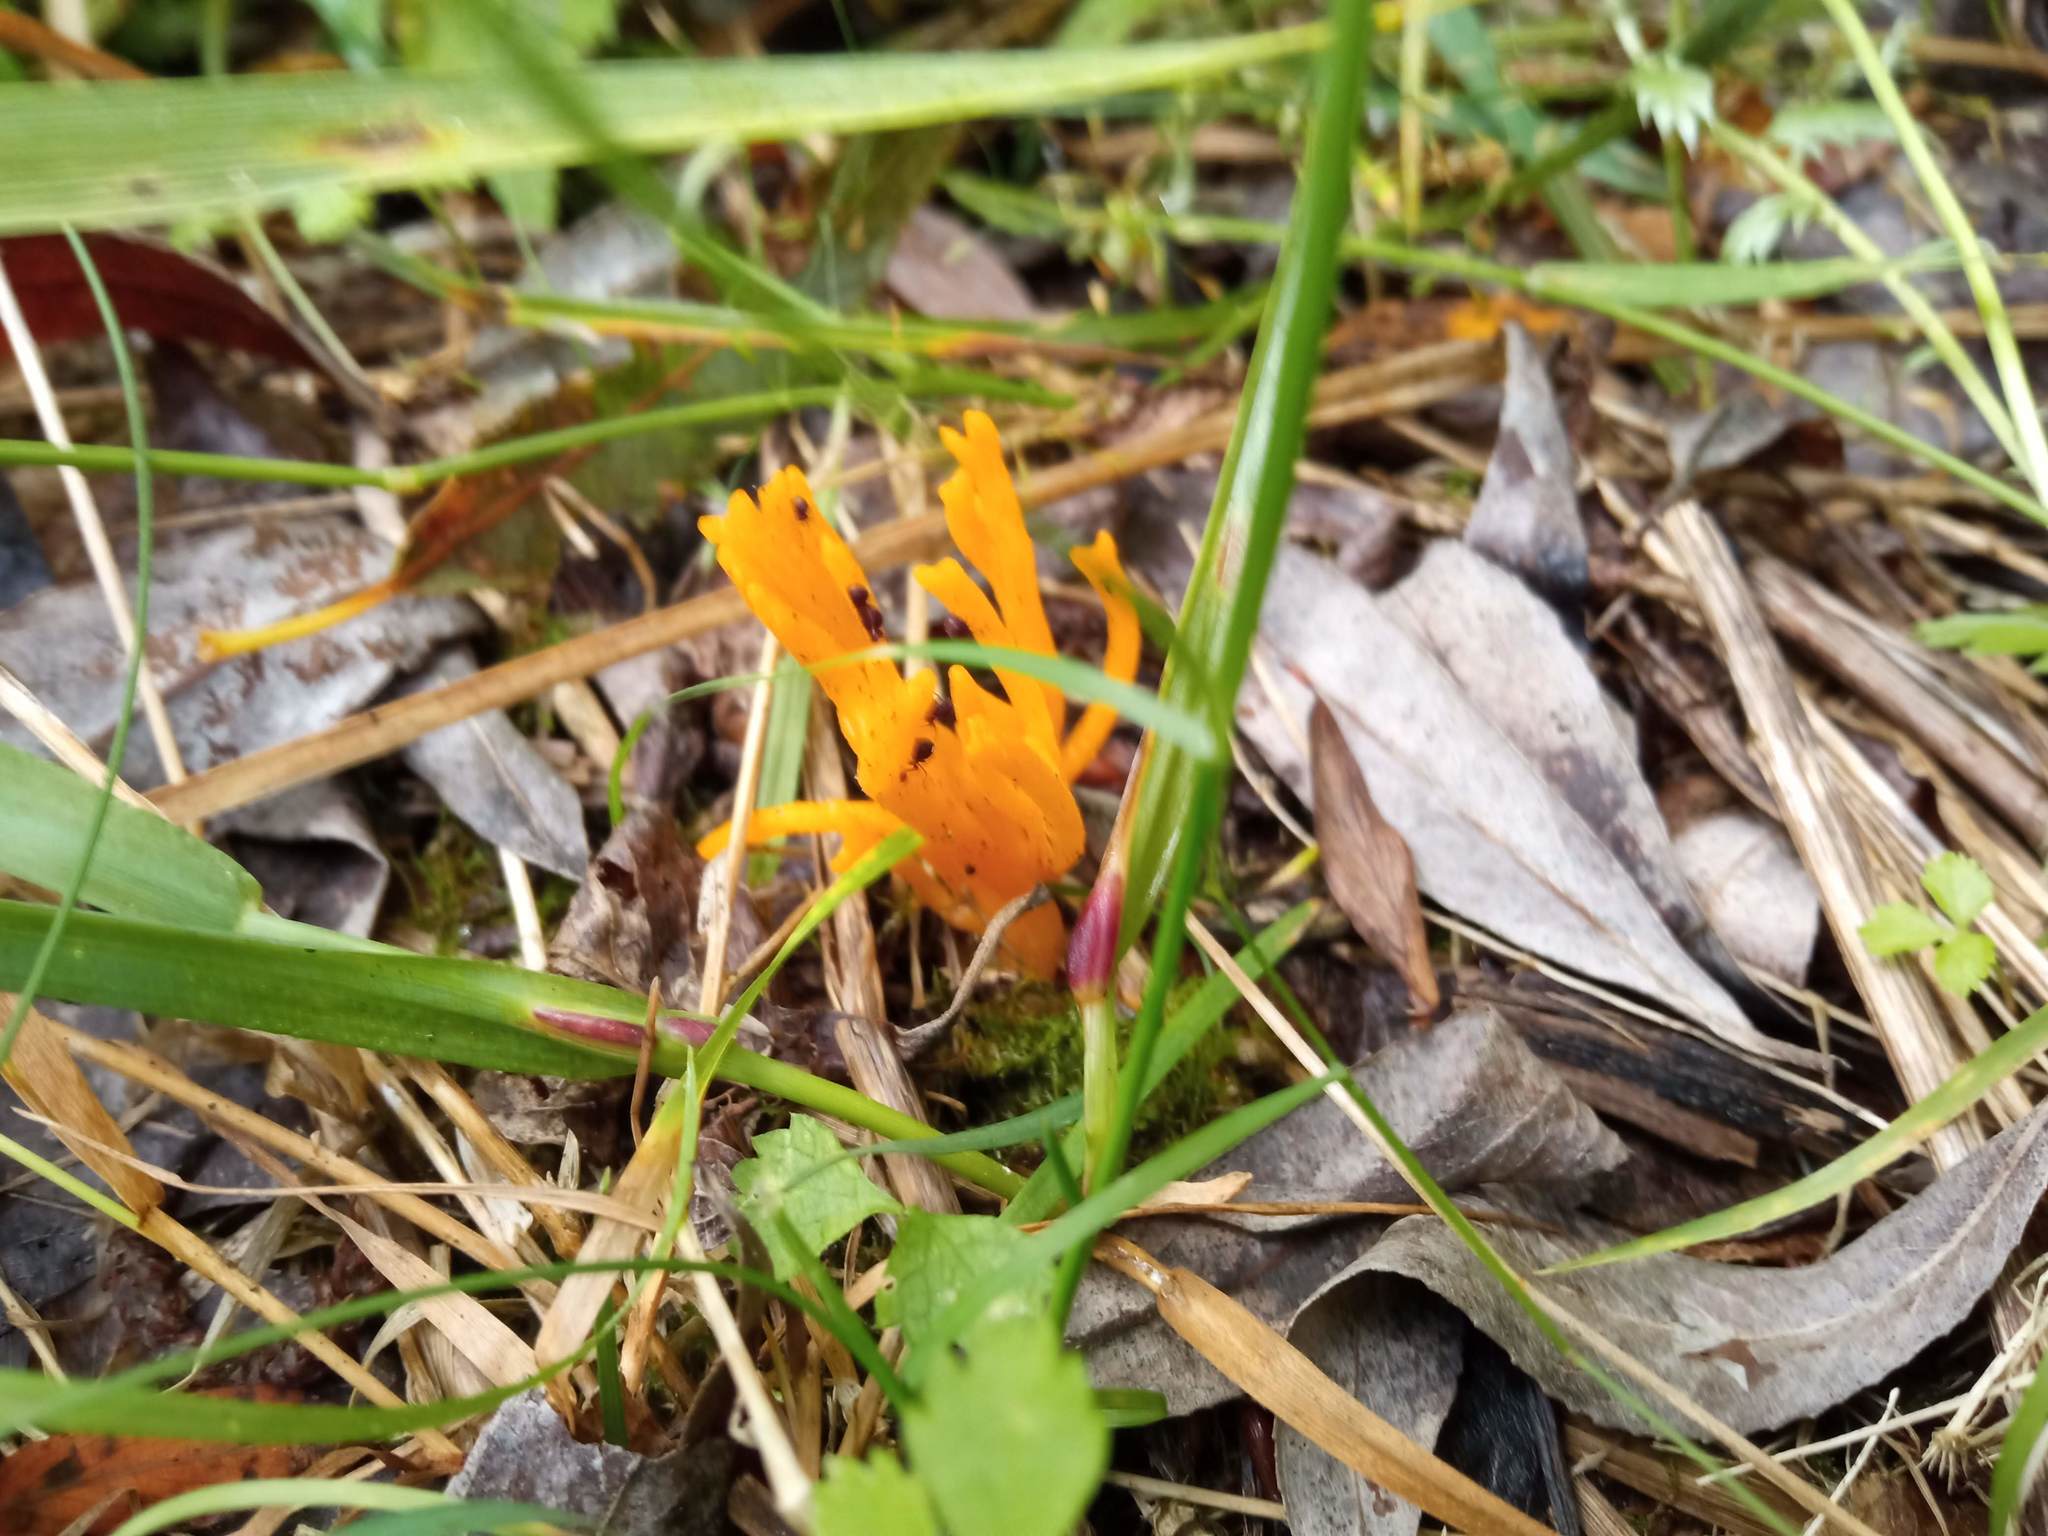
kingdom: Fungi
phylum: Basidiomycota
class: Agaricomycetes
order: Agaricales
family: Clavariaceae
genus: Ramariopsis
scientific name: Ramariopsis crocea
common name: Orange coral
